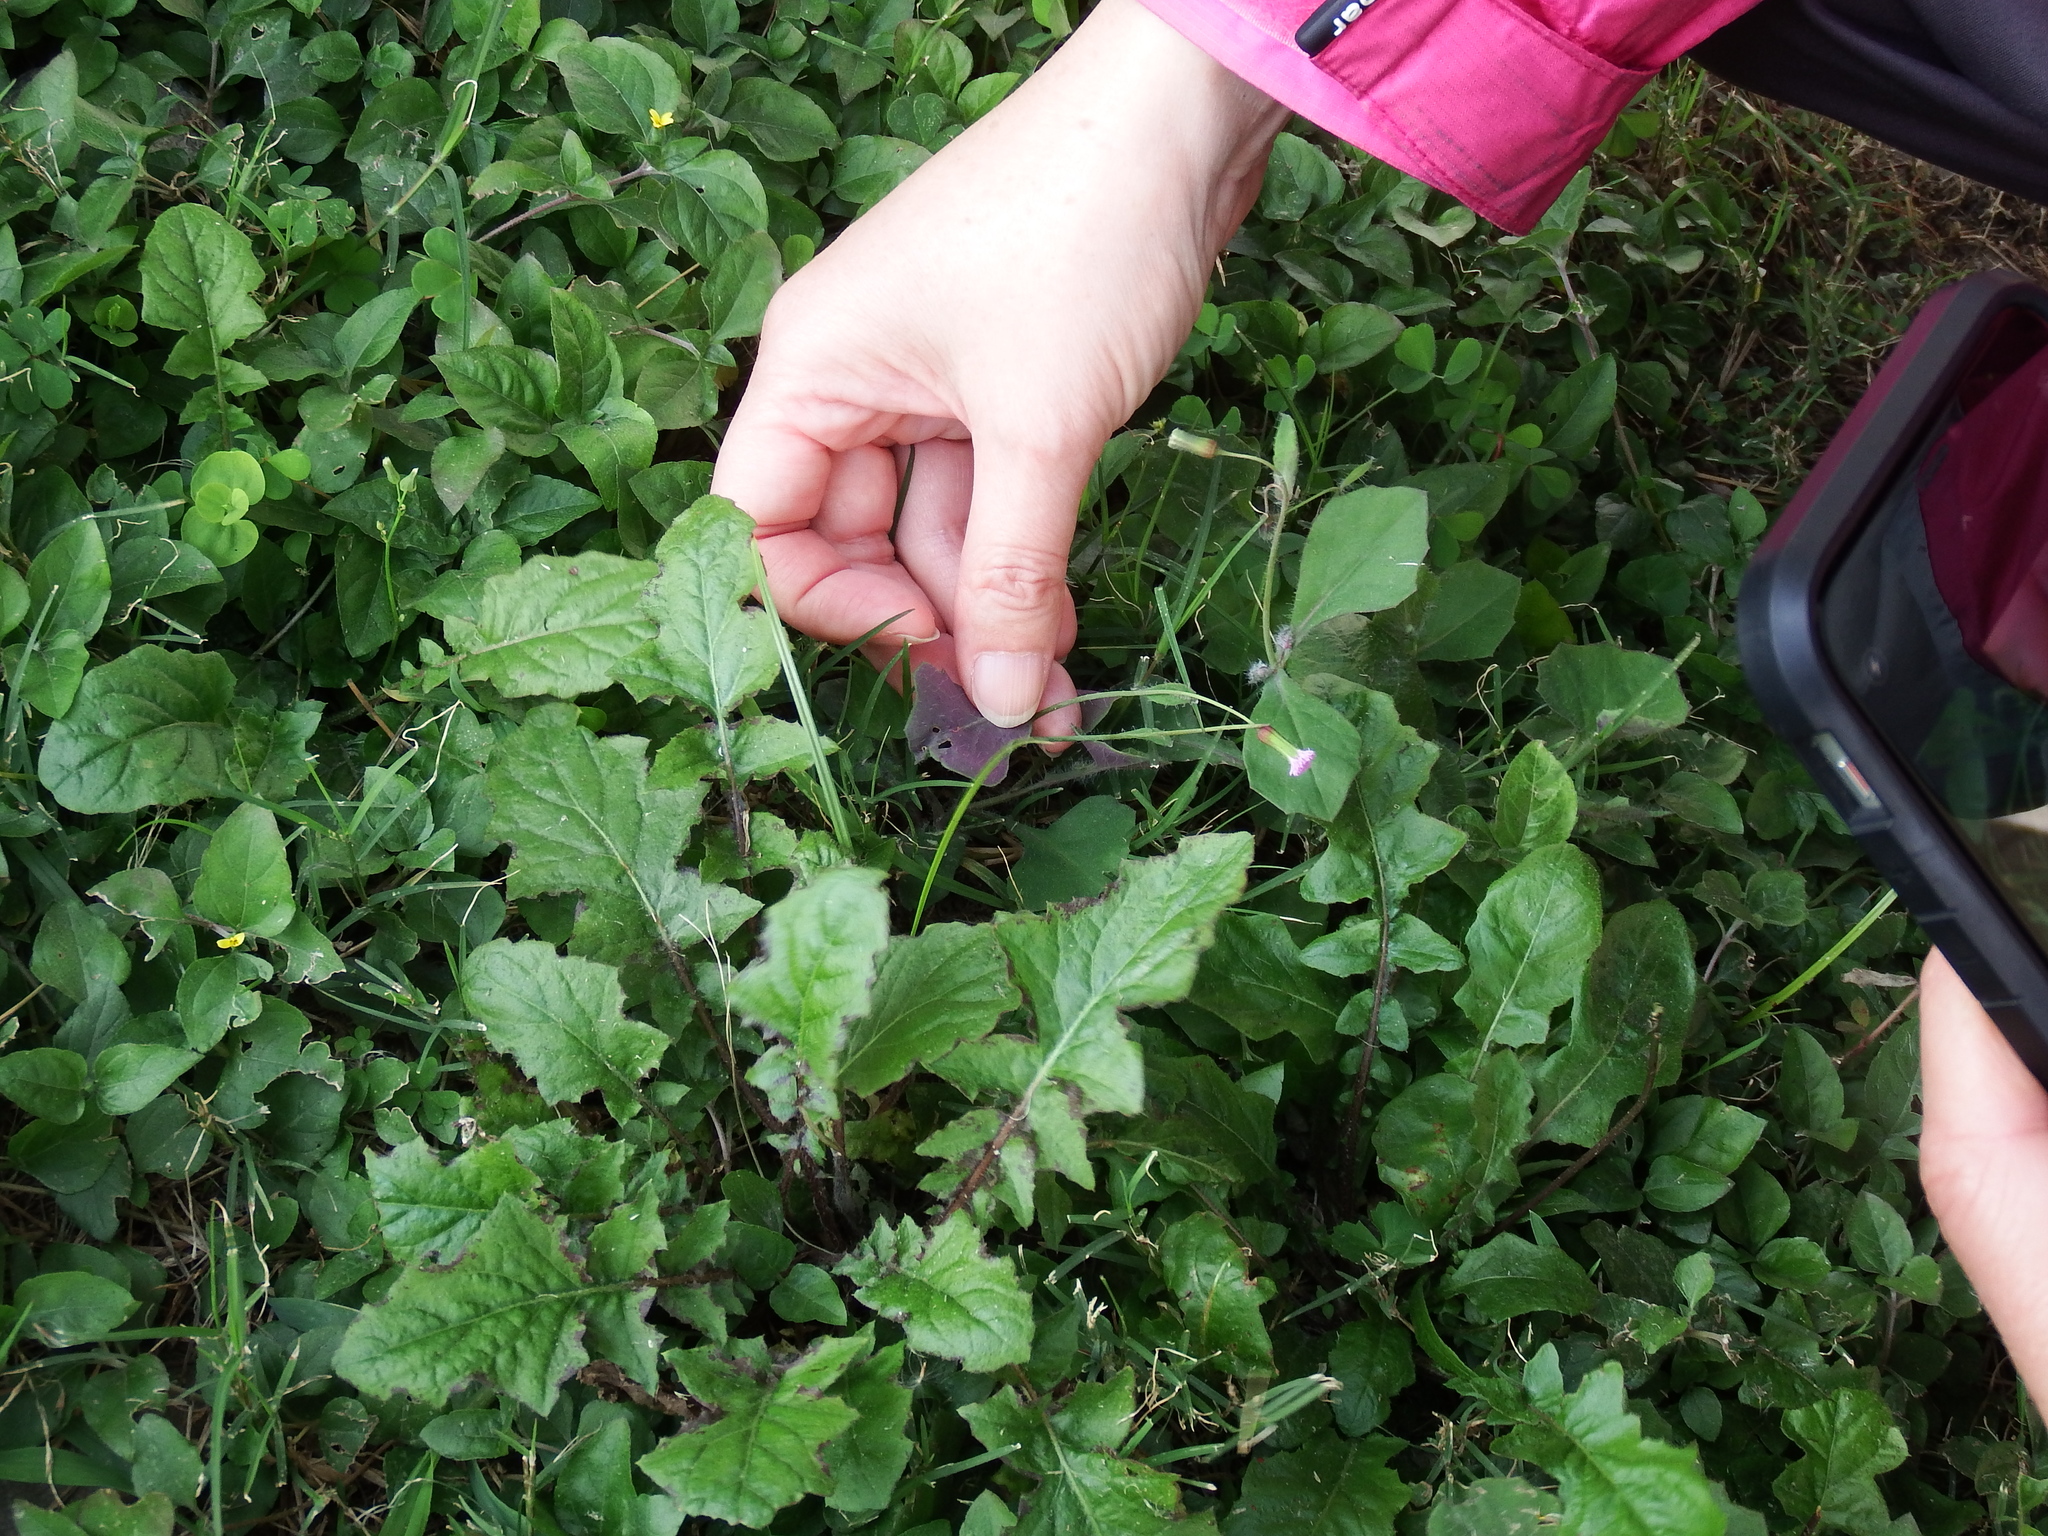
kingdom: Plantae
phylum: Tracheophyta
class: Magnoliopsida
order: Asterales
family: Asteraceae
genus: Emilia
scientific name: Emilia javanica
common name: Tassel-flower
